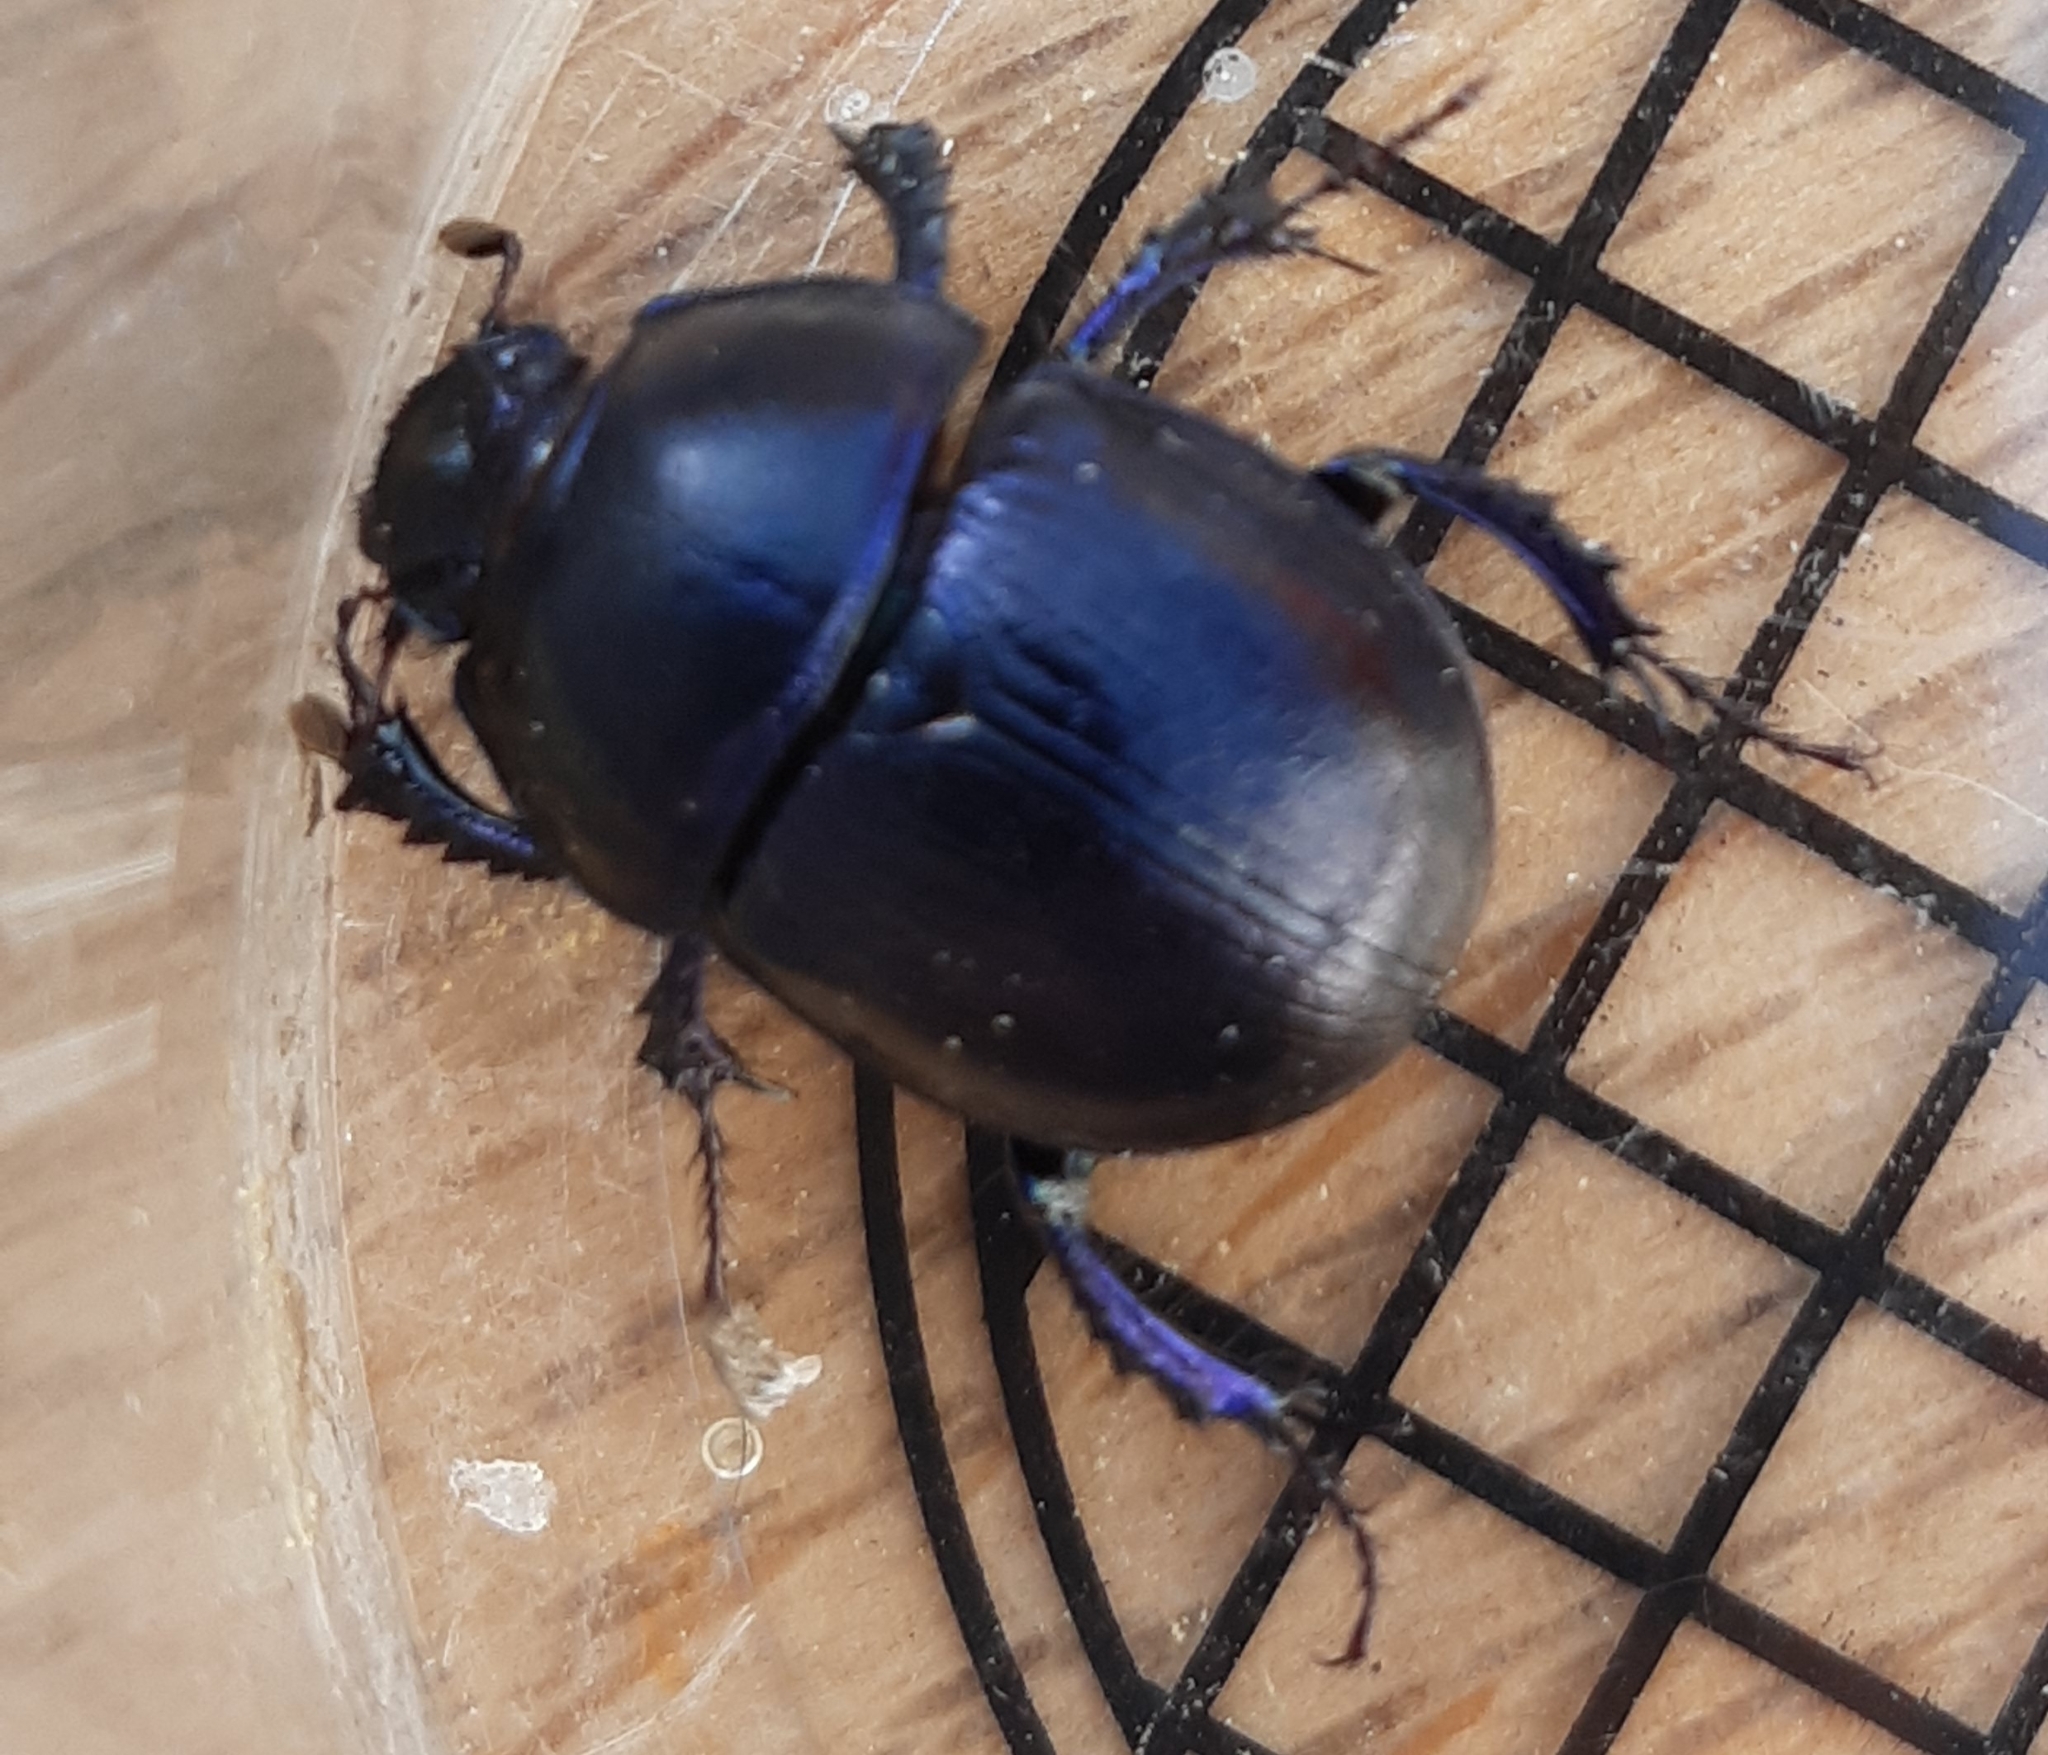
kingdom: Animalia
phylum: Arthropoda
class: Insecta
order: Coleoptera
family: Geotrupidae
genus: Anoplotrupes
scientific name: Anoplotrupes stercorosus
